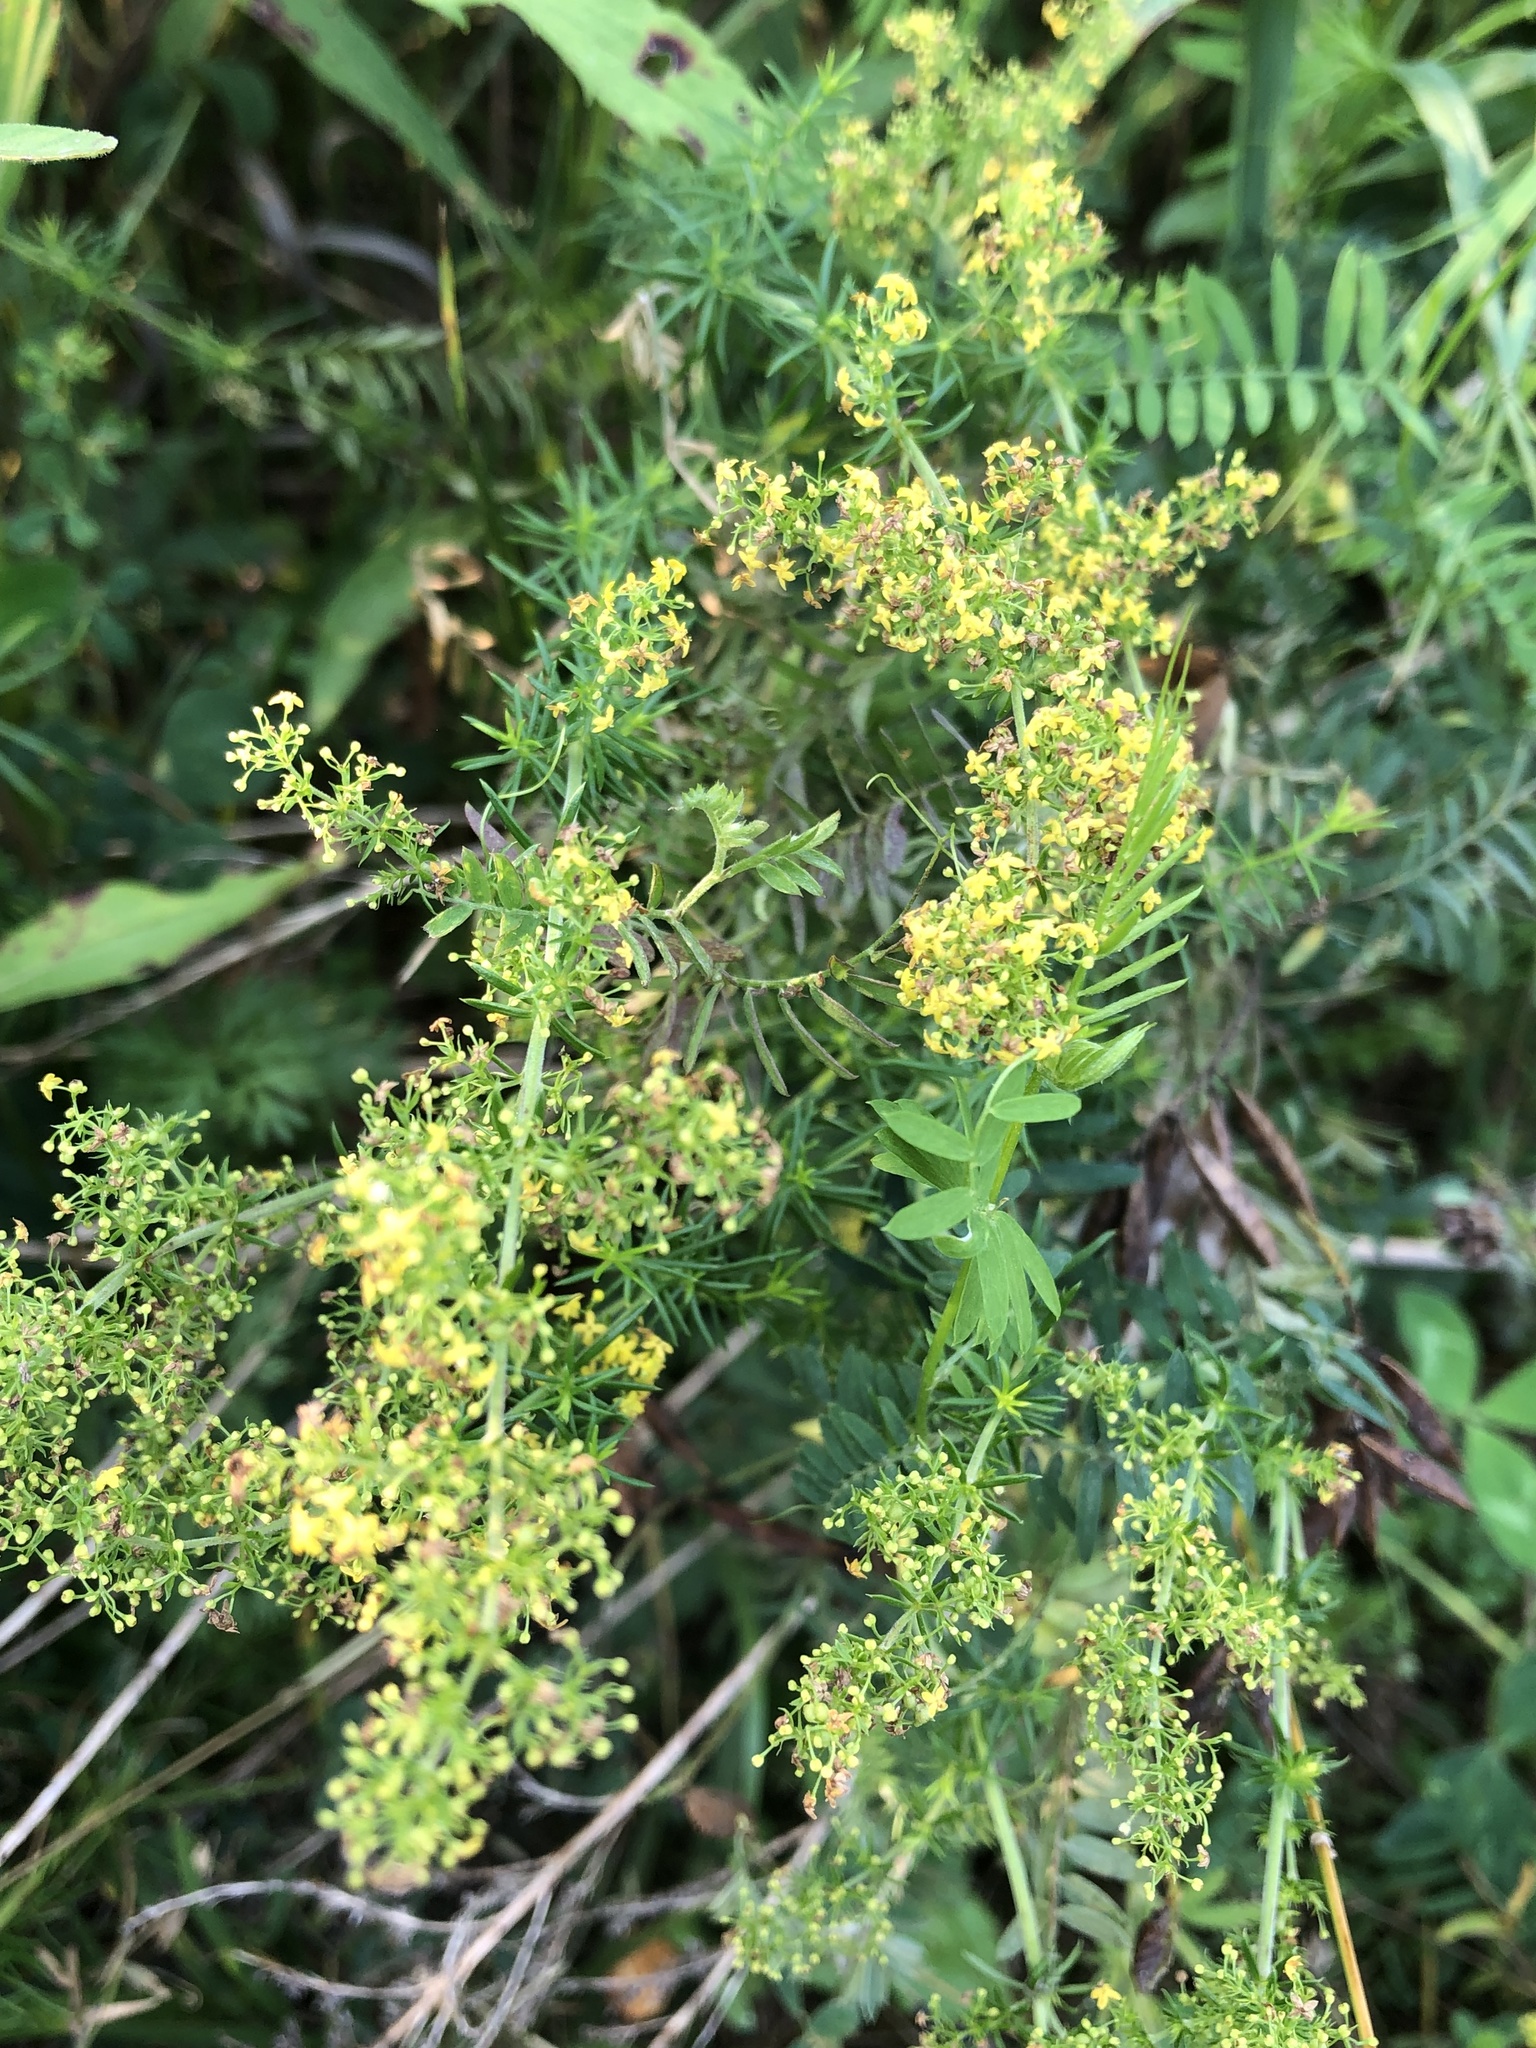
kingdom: Plantae
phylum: Tracheophyta
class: Magnoliopsida
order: Gentianales
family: Rubiaceae
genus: Galium
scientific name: Galium verum
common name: Lady's bedstraw
